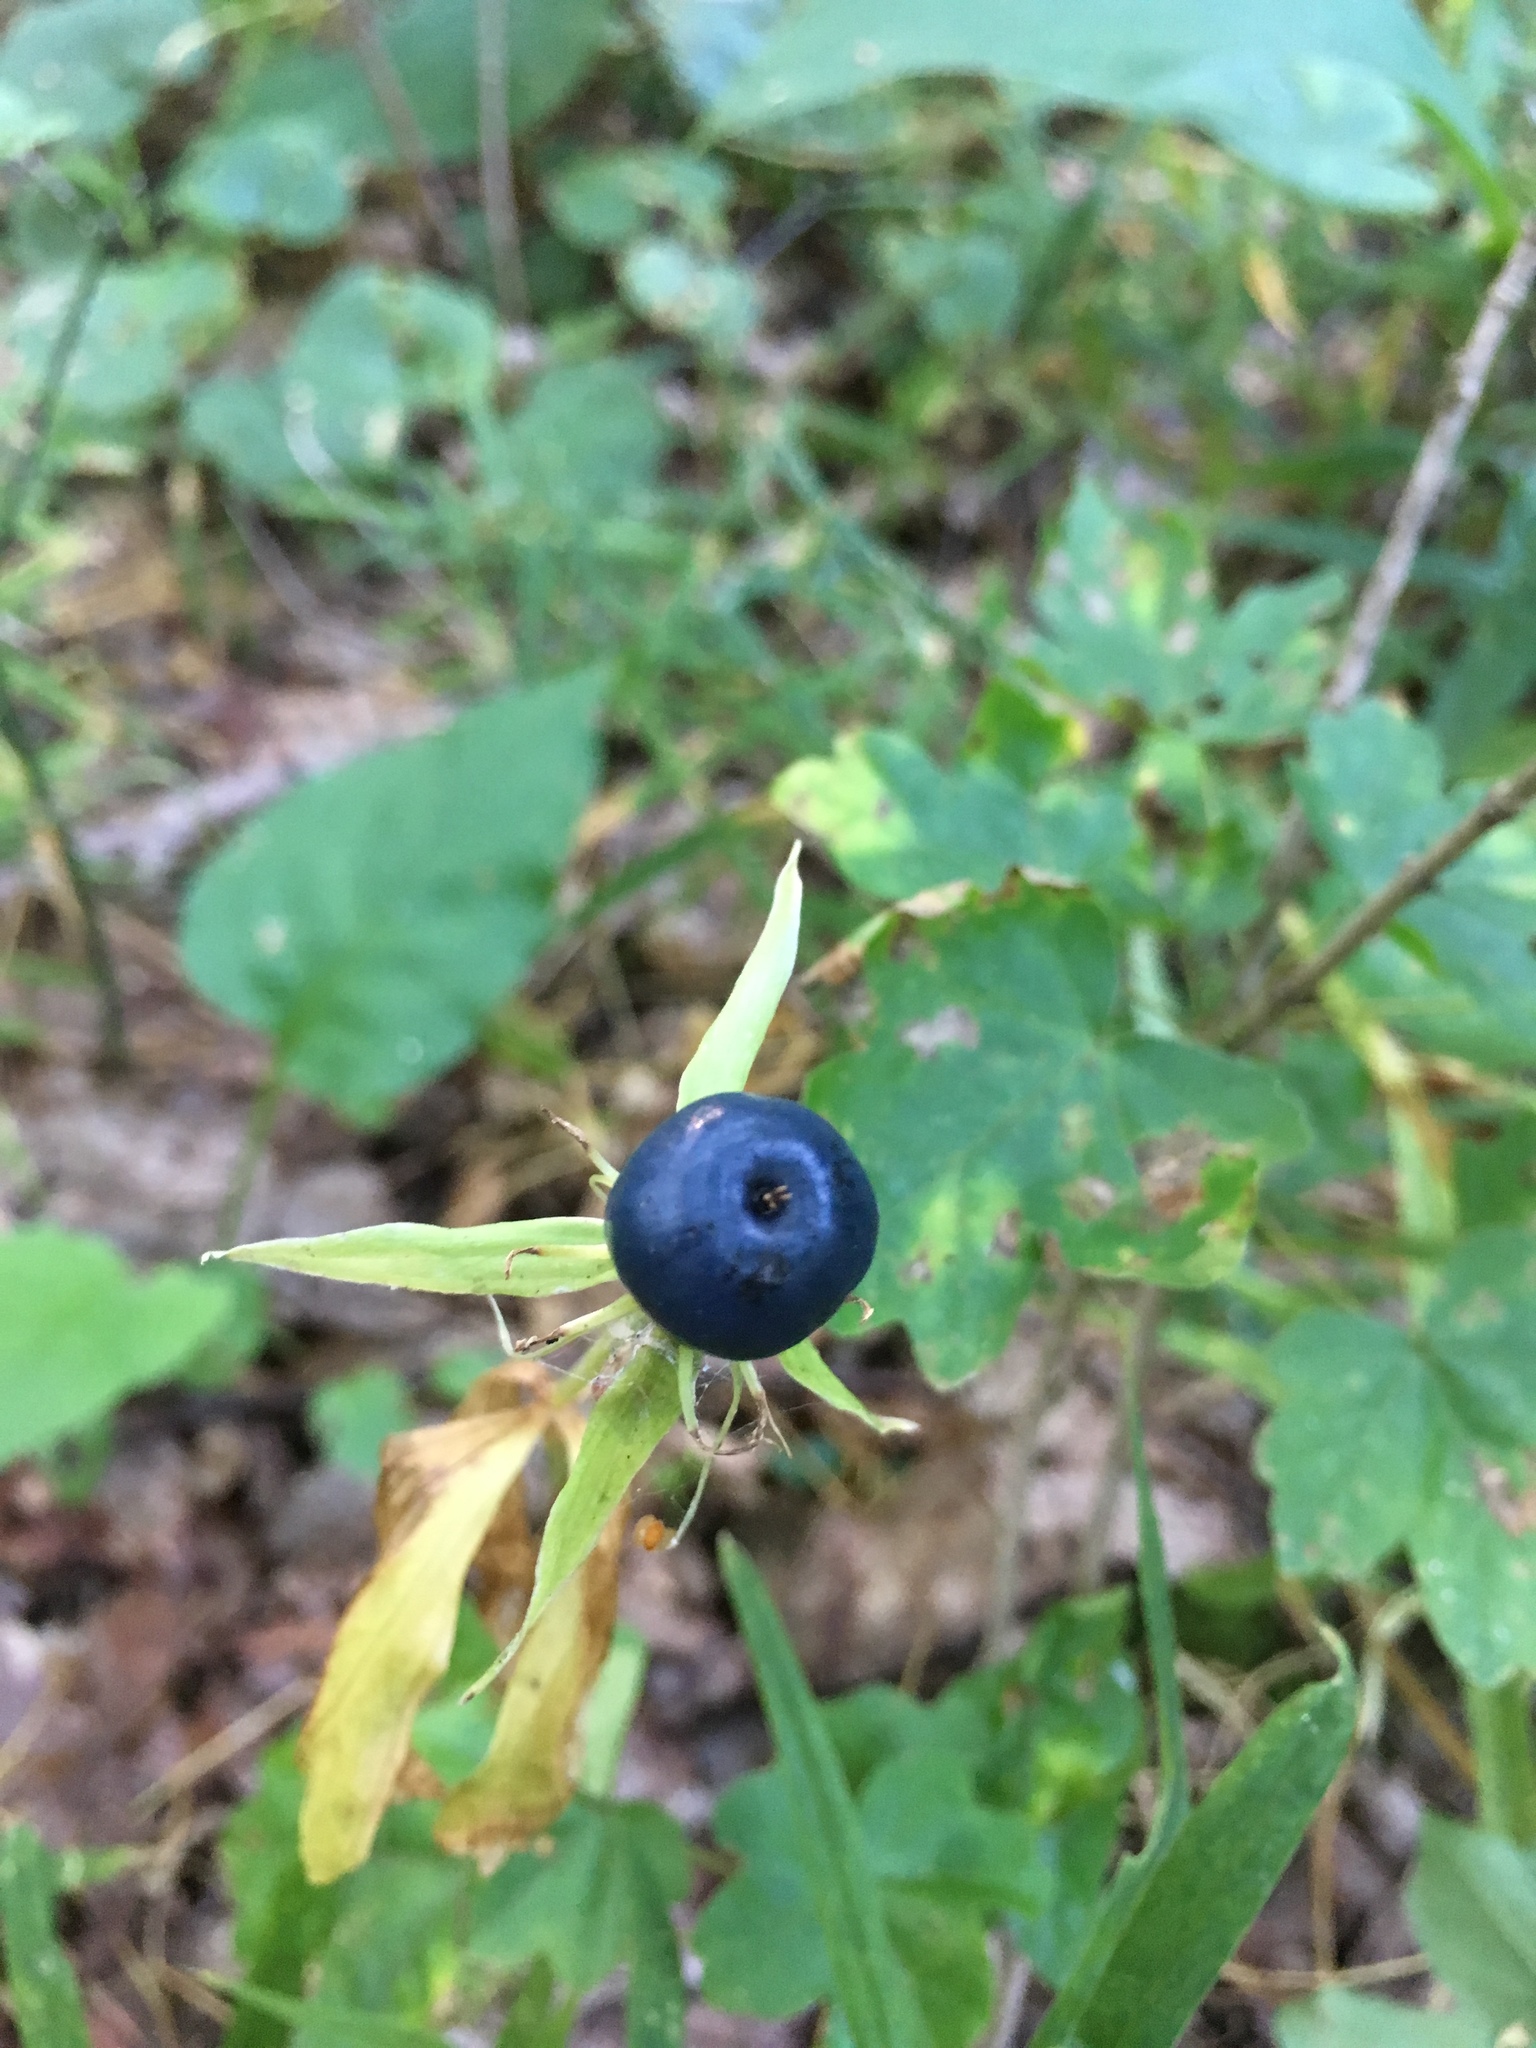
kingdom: Plantae
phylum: Tracheophyta
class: Liliopsida
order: Liliales
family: Melanthiaceae
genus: Paris
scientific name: Paris quadrifolia
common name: Herb-paris
